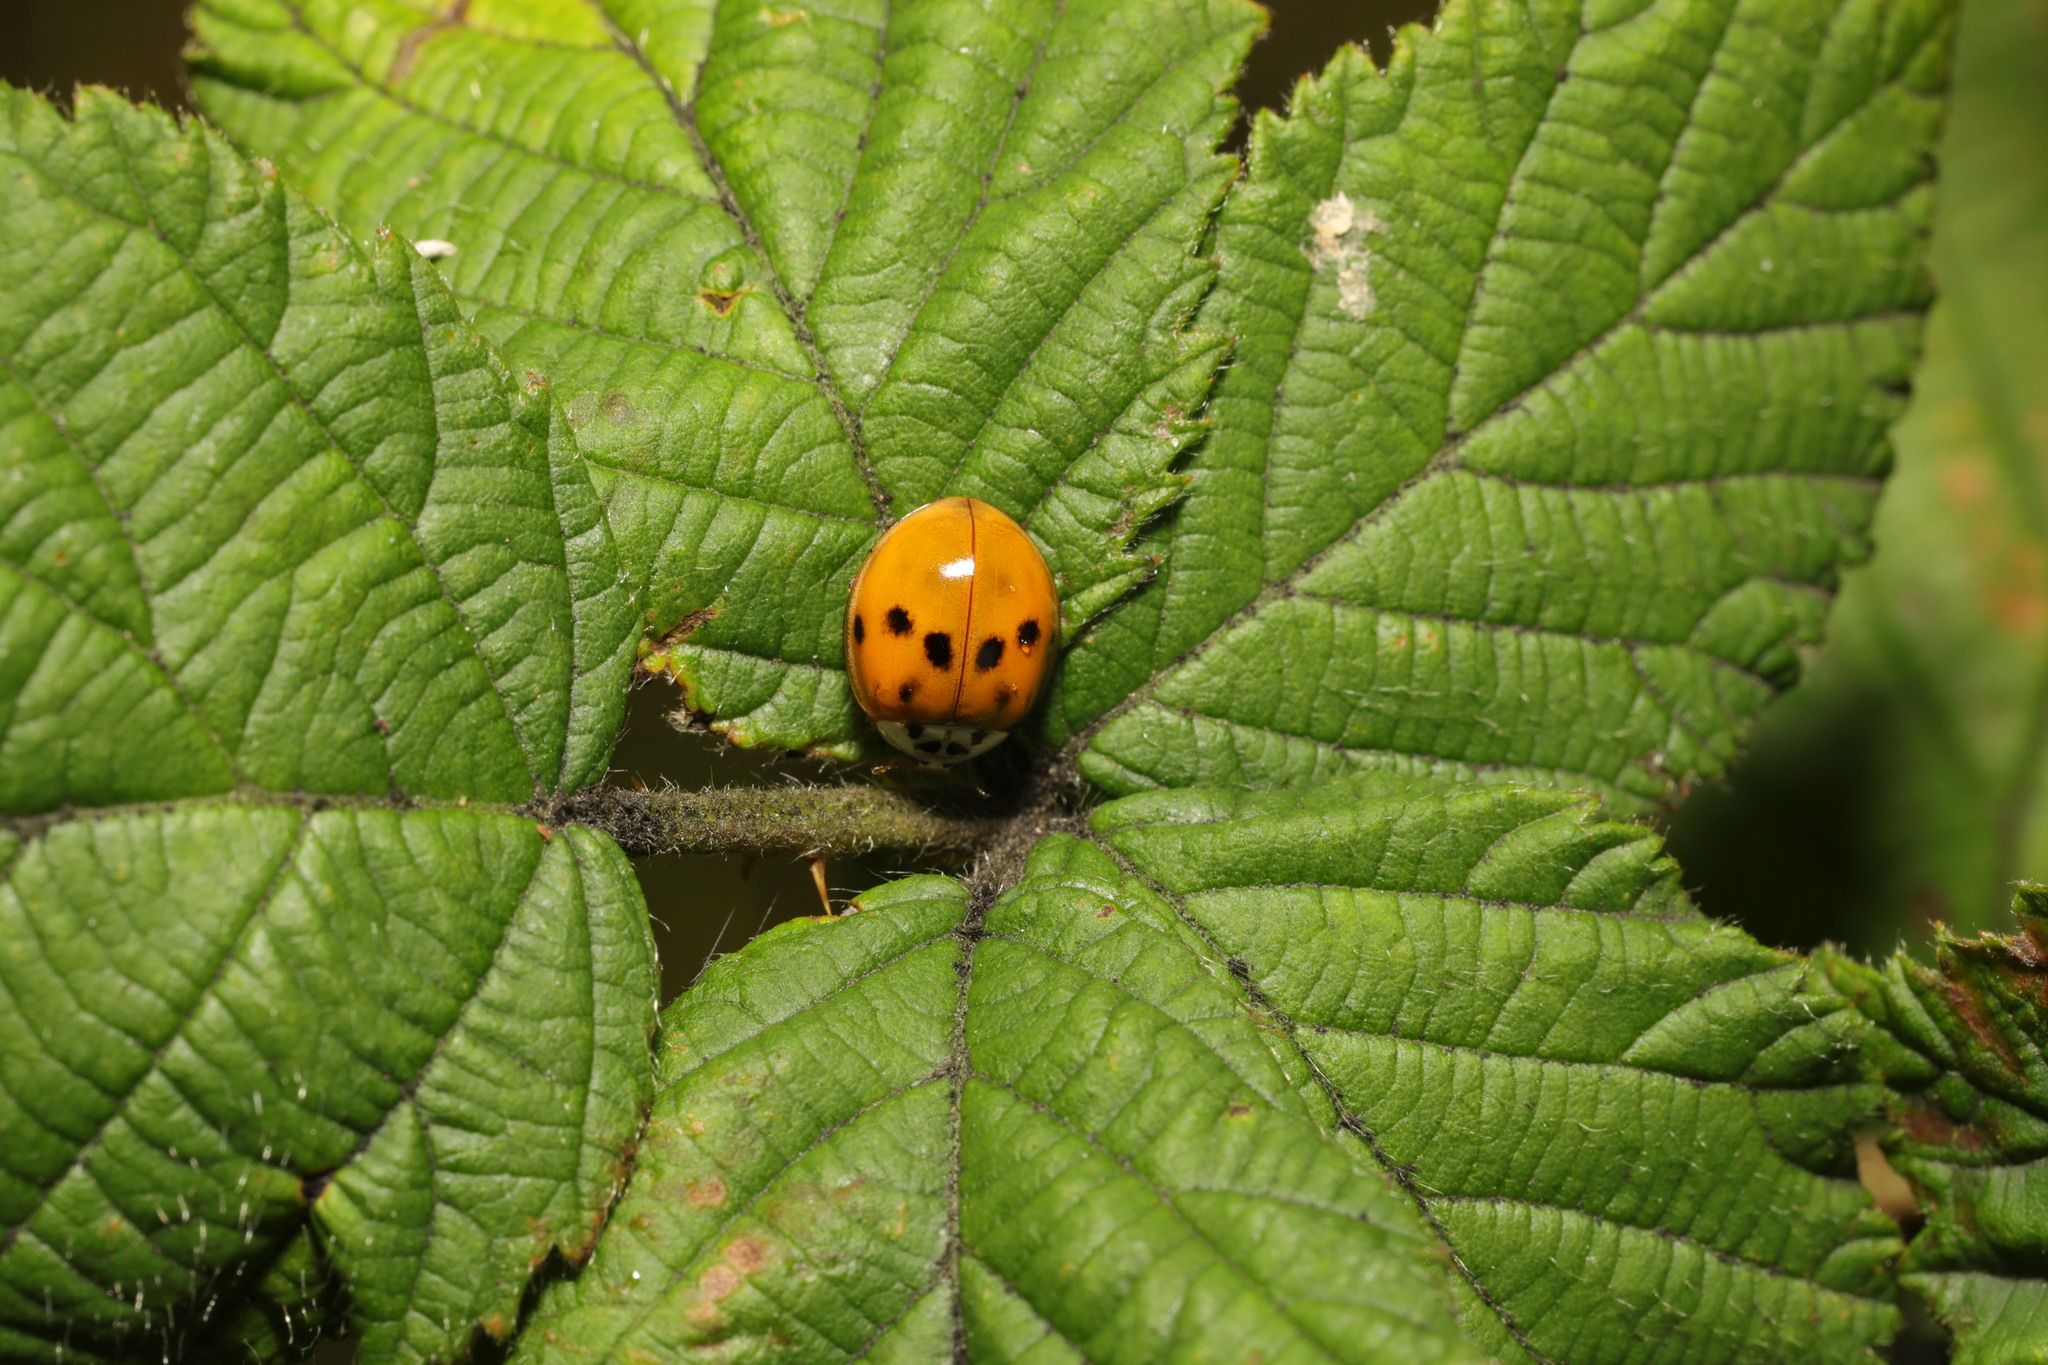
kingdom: Animalia
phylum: Arthropoda
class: Insecta
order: Coleoptera
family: Coccinellidae
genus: Harmonia
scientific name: Harmonia axyridis
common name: Harlequin ladybird
